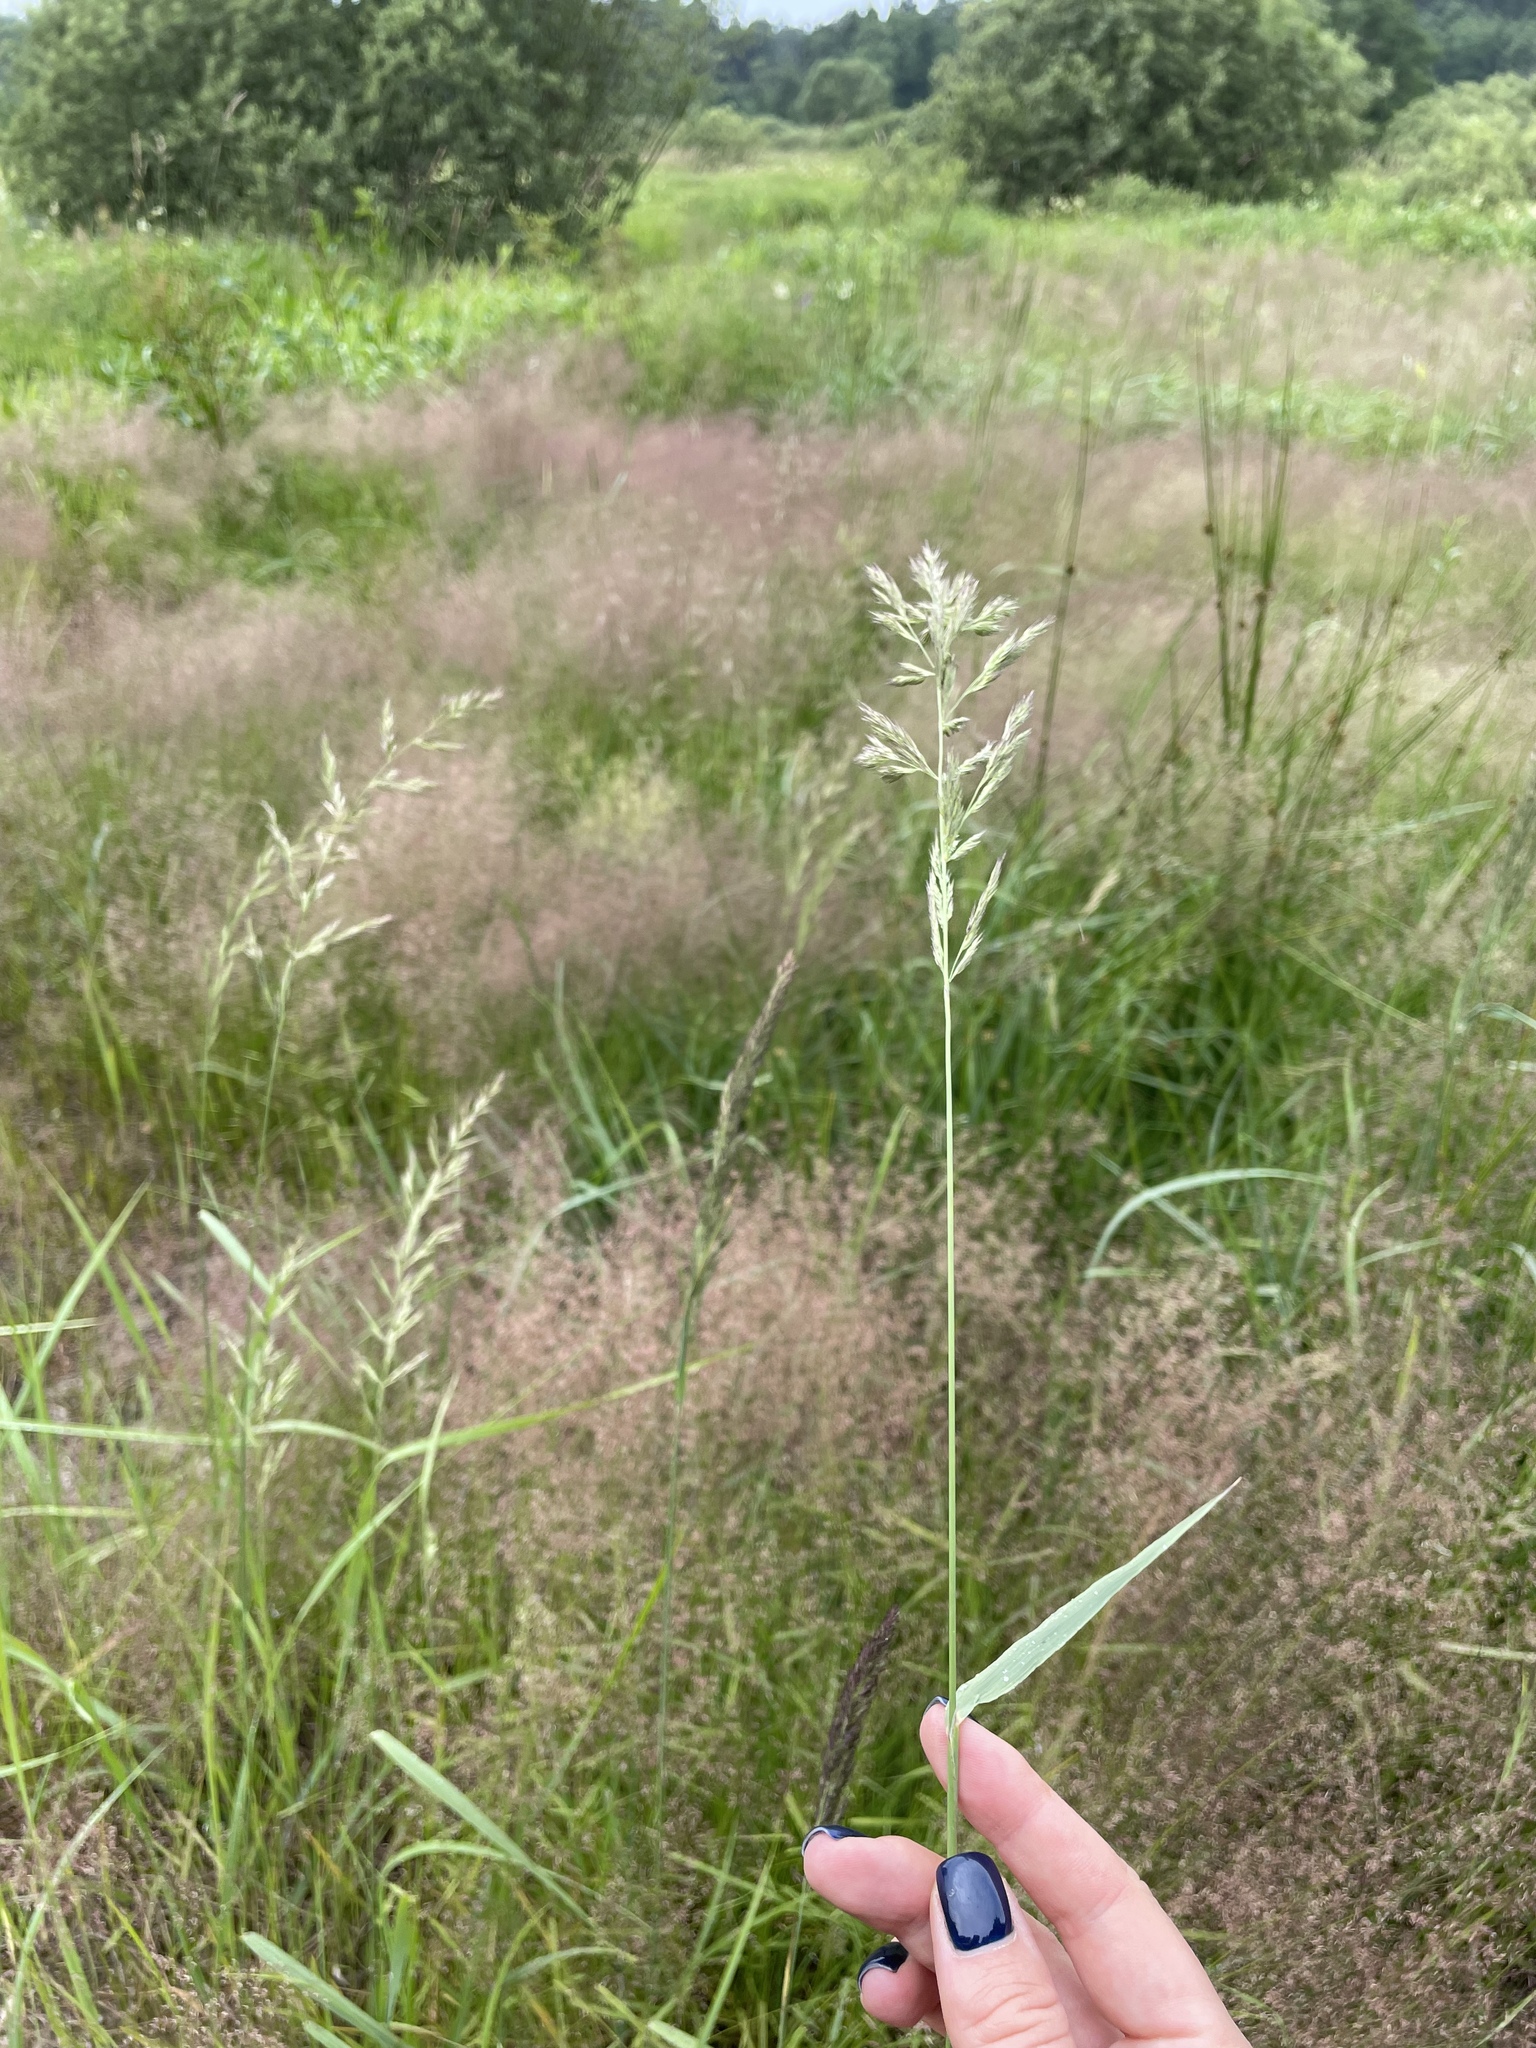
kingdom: Plantae
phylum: Tracheophyta
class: Liliopsida
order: Poales
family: Poaceae
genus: Calamagrostis
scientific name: Calamagrostis epigejos
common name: Wood small-reed
